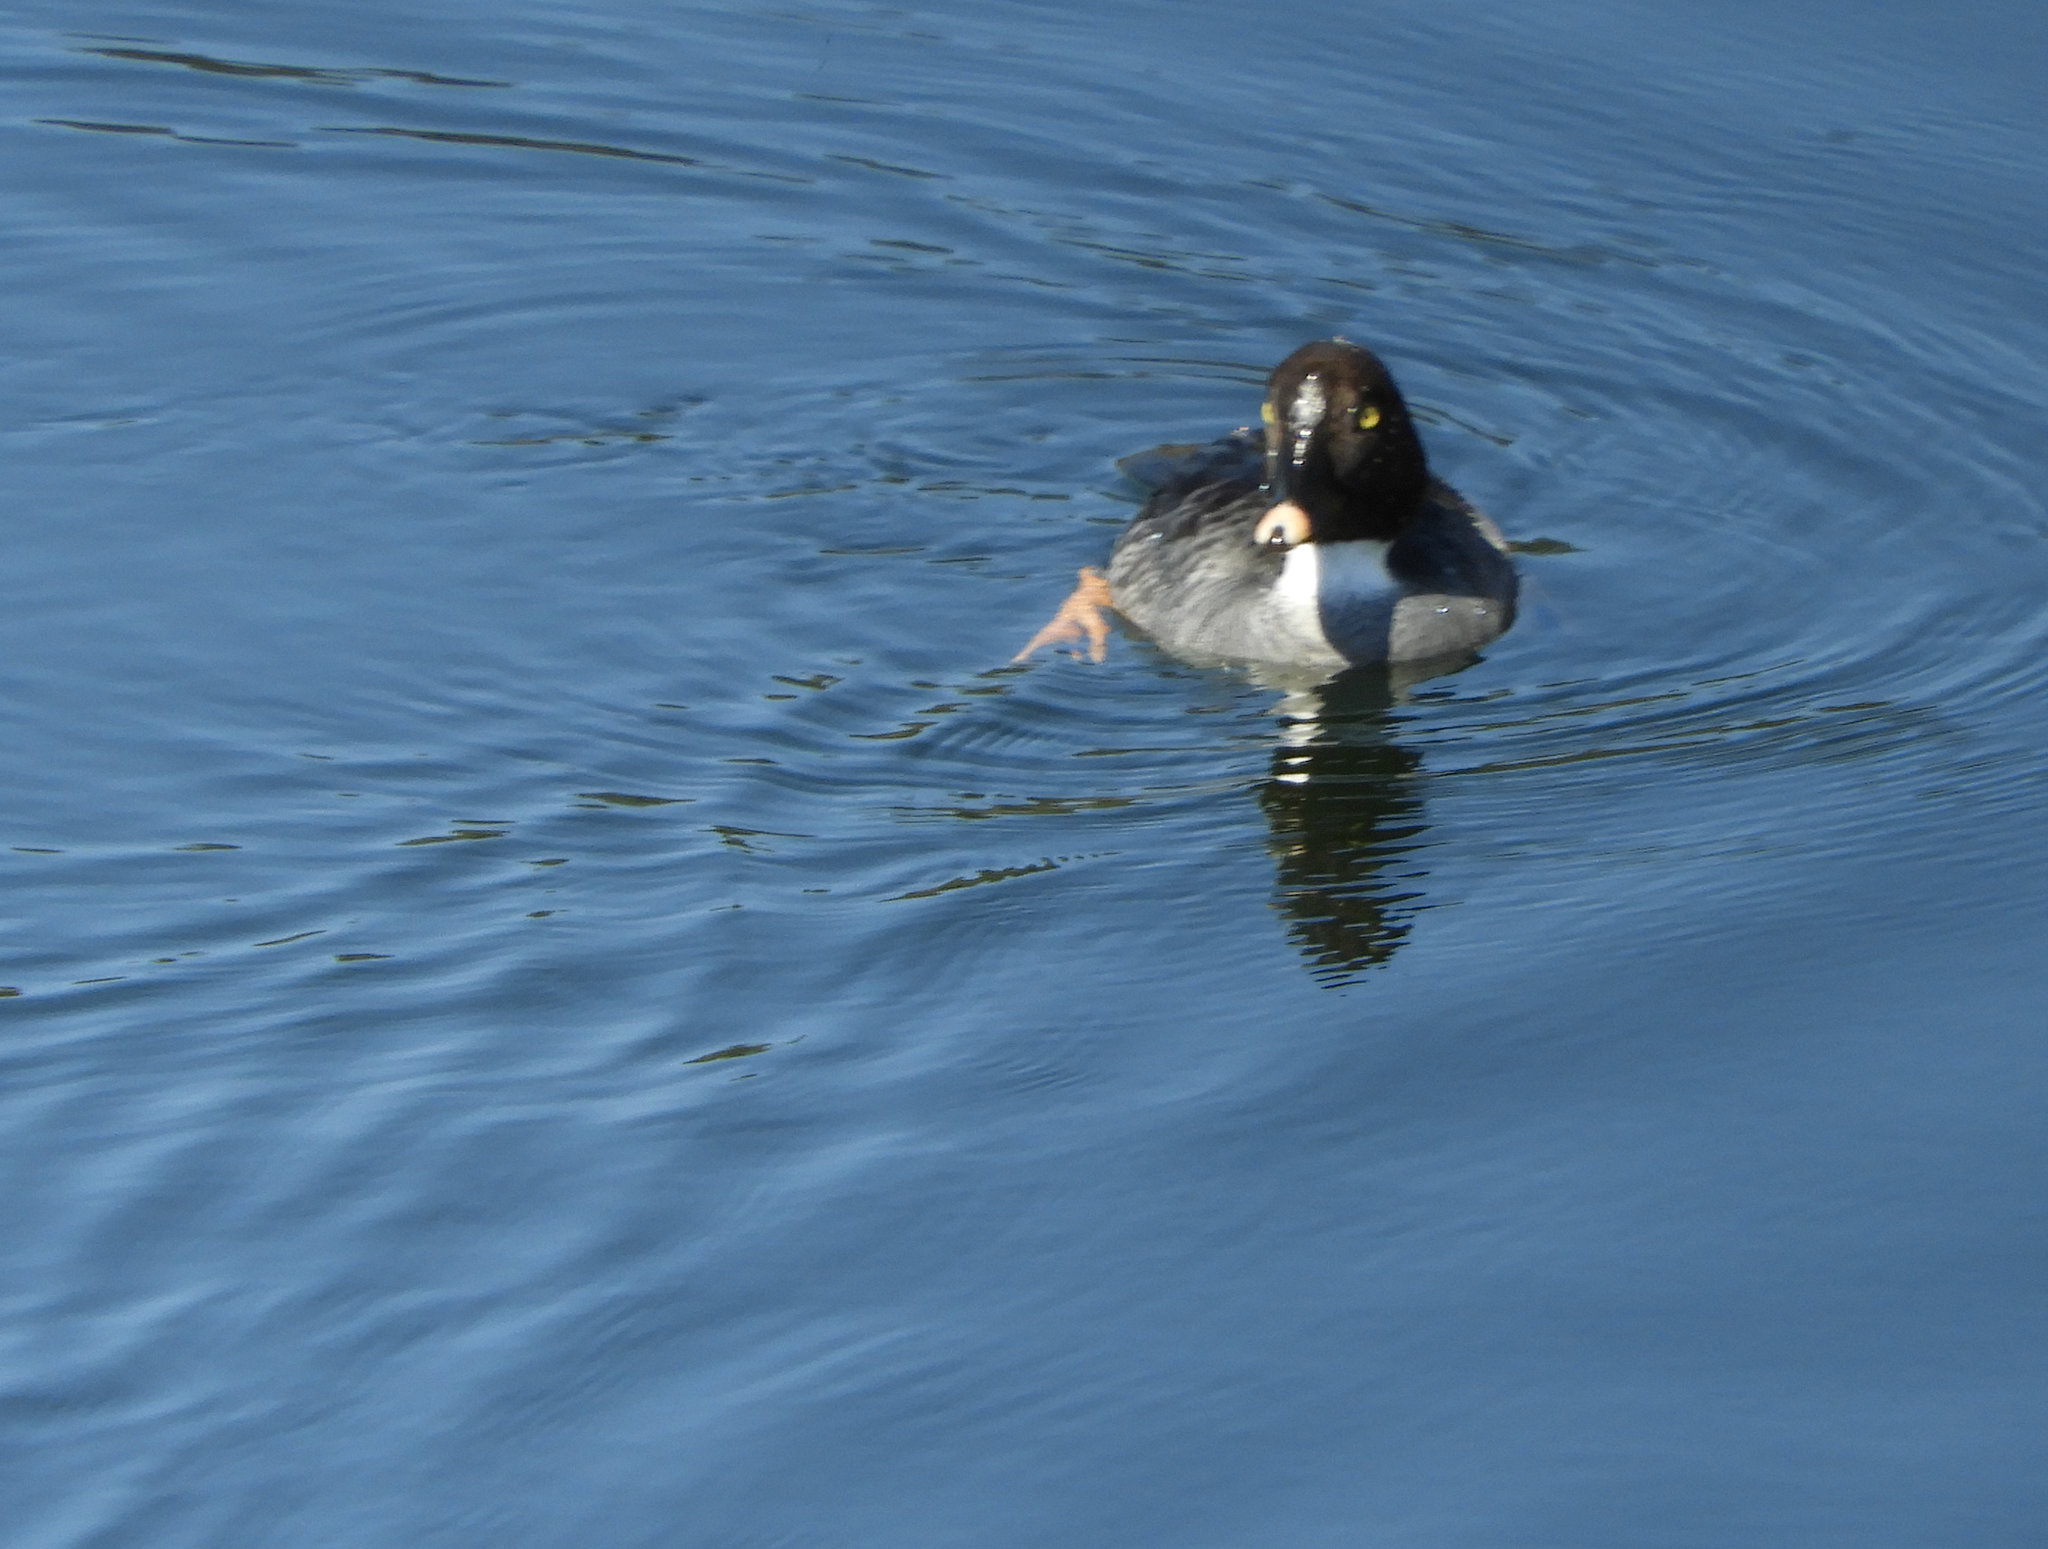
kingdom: Animalia
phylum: Chordata
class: Aves
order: Anseriformes
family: Anatidae
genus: Bucephala
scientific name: Bucephala clangula
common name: Common goldeneye
